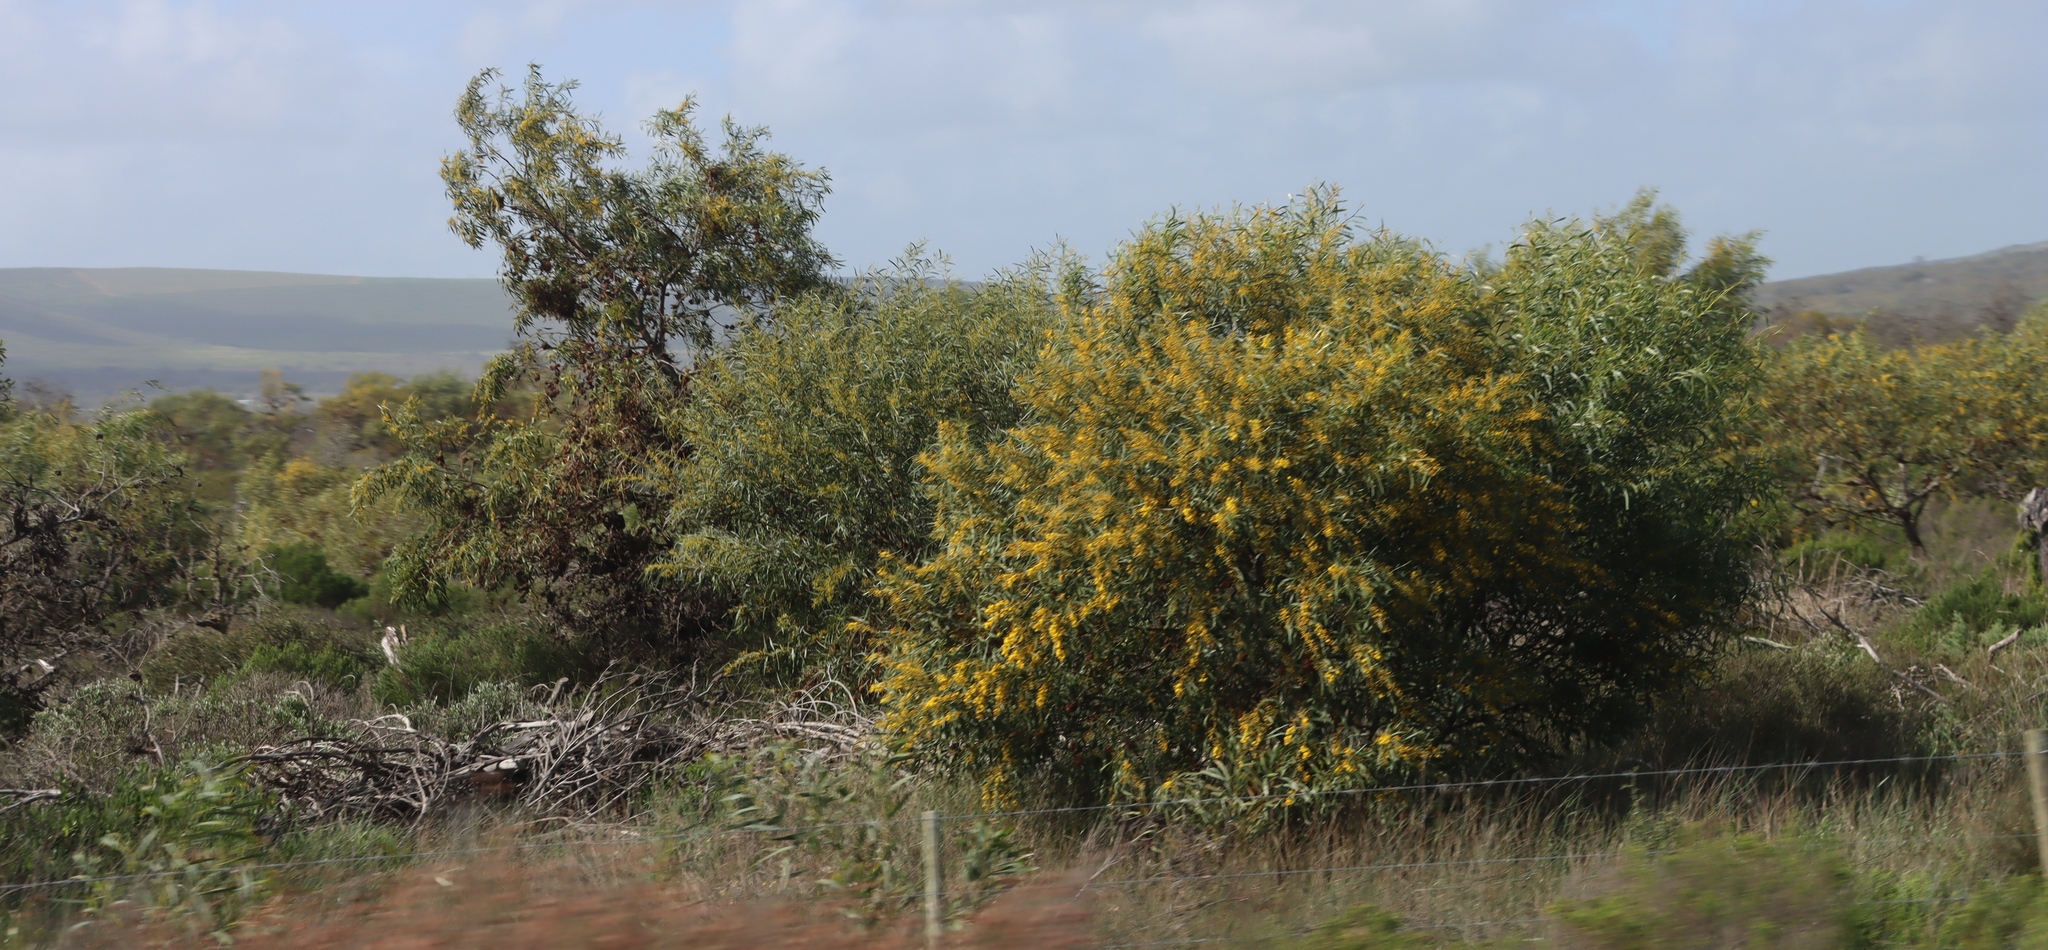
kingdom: Plantae
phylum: Tracheophyta
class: Magnoliopsida
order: Fabales
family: Fabaceae
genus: Acacia
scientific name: Acacia saligna
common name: Orange wattle
